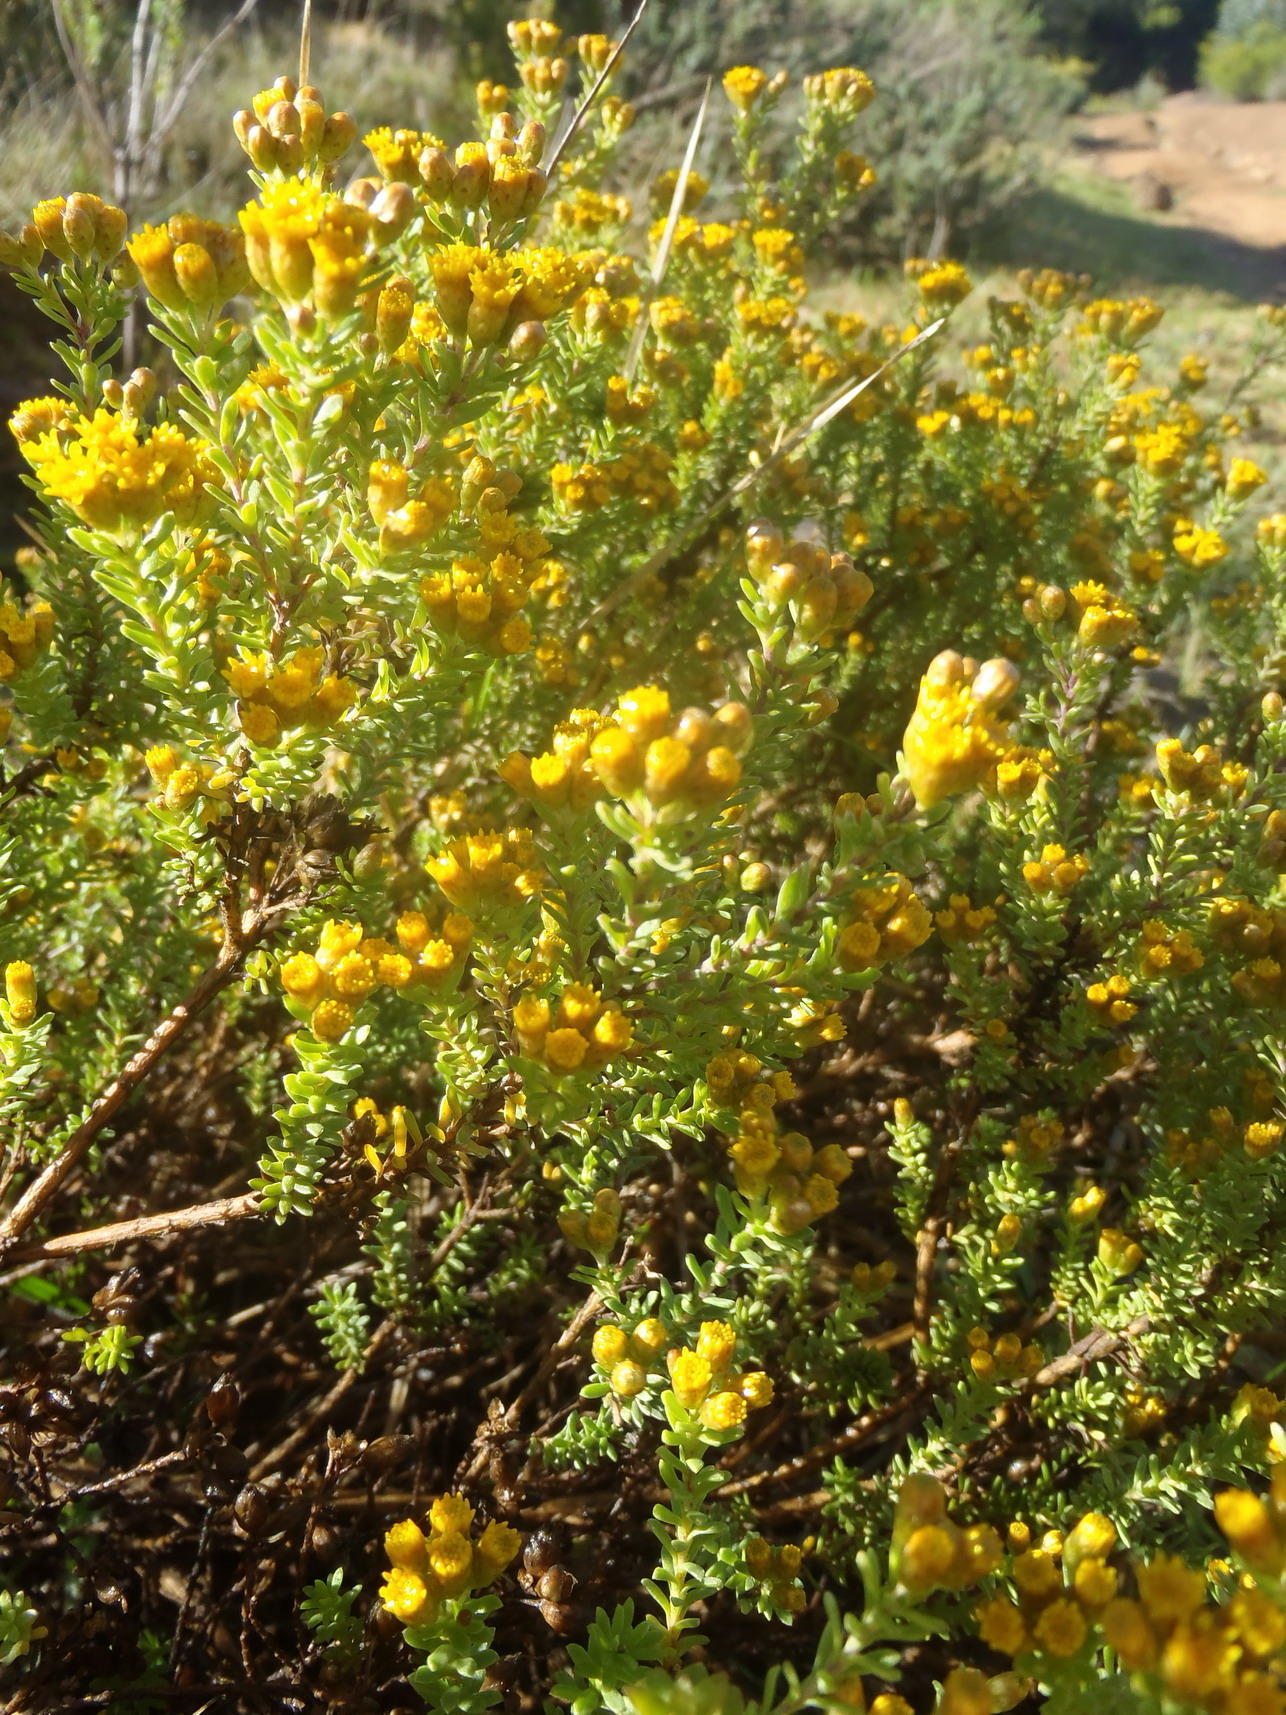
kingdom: Plantae
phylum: Tracheophyta
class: Magnoliopsida
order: Asterales
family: Asteraceae
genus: Oedera
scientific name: Oedera genistifolia
